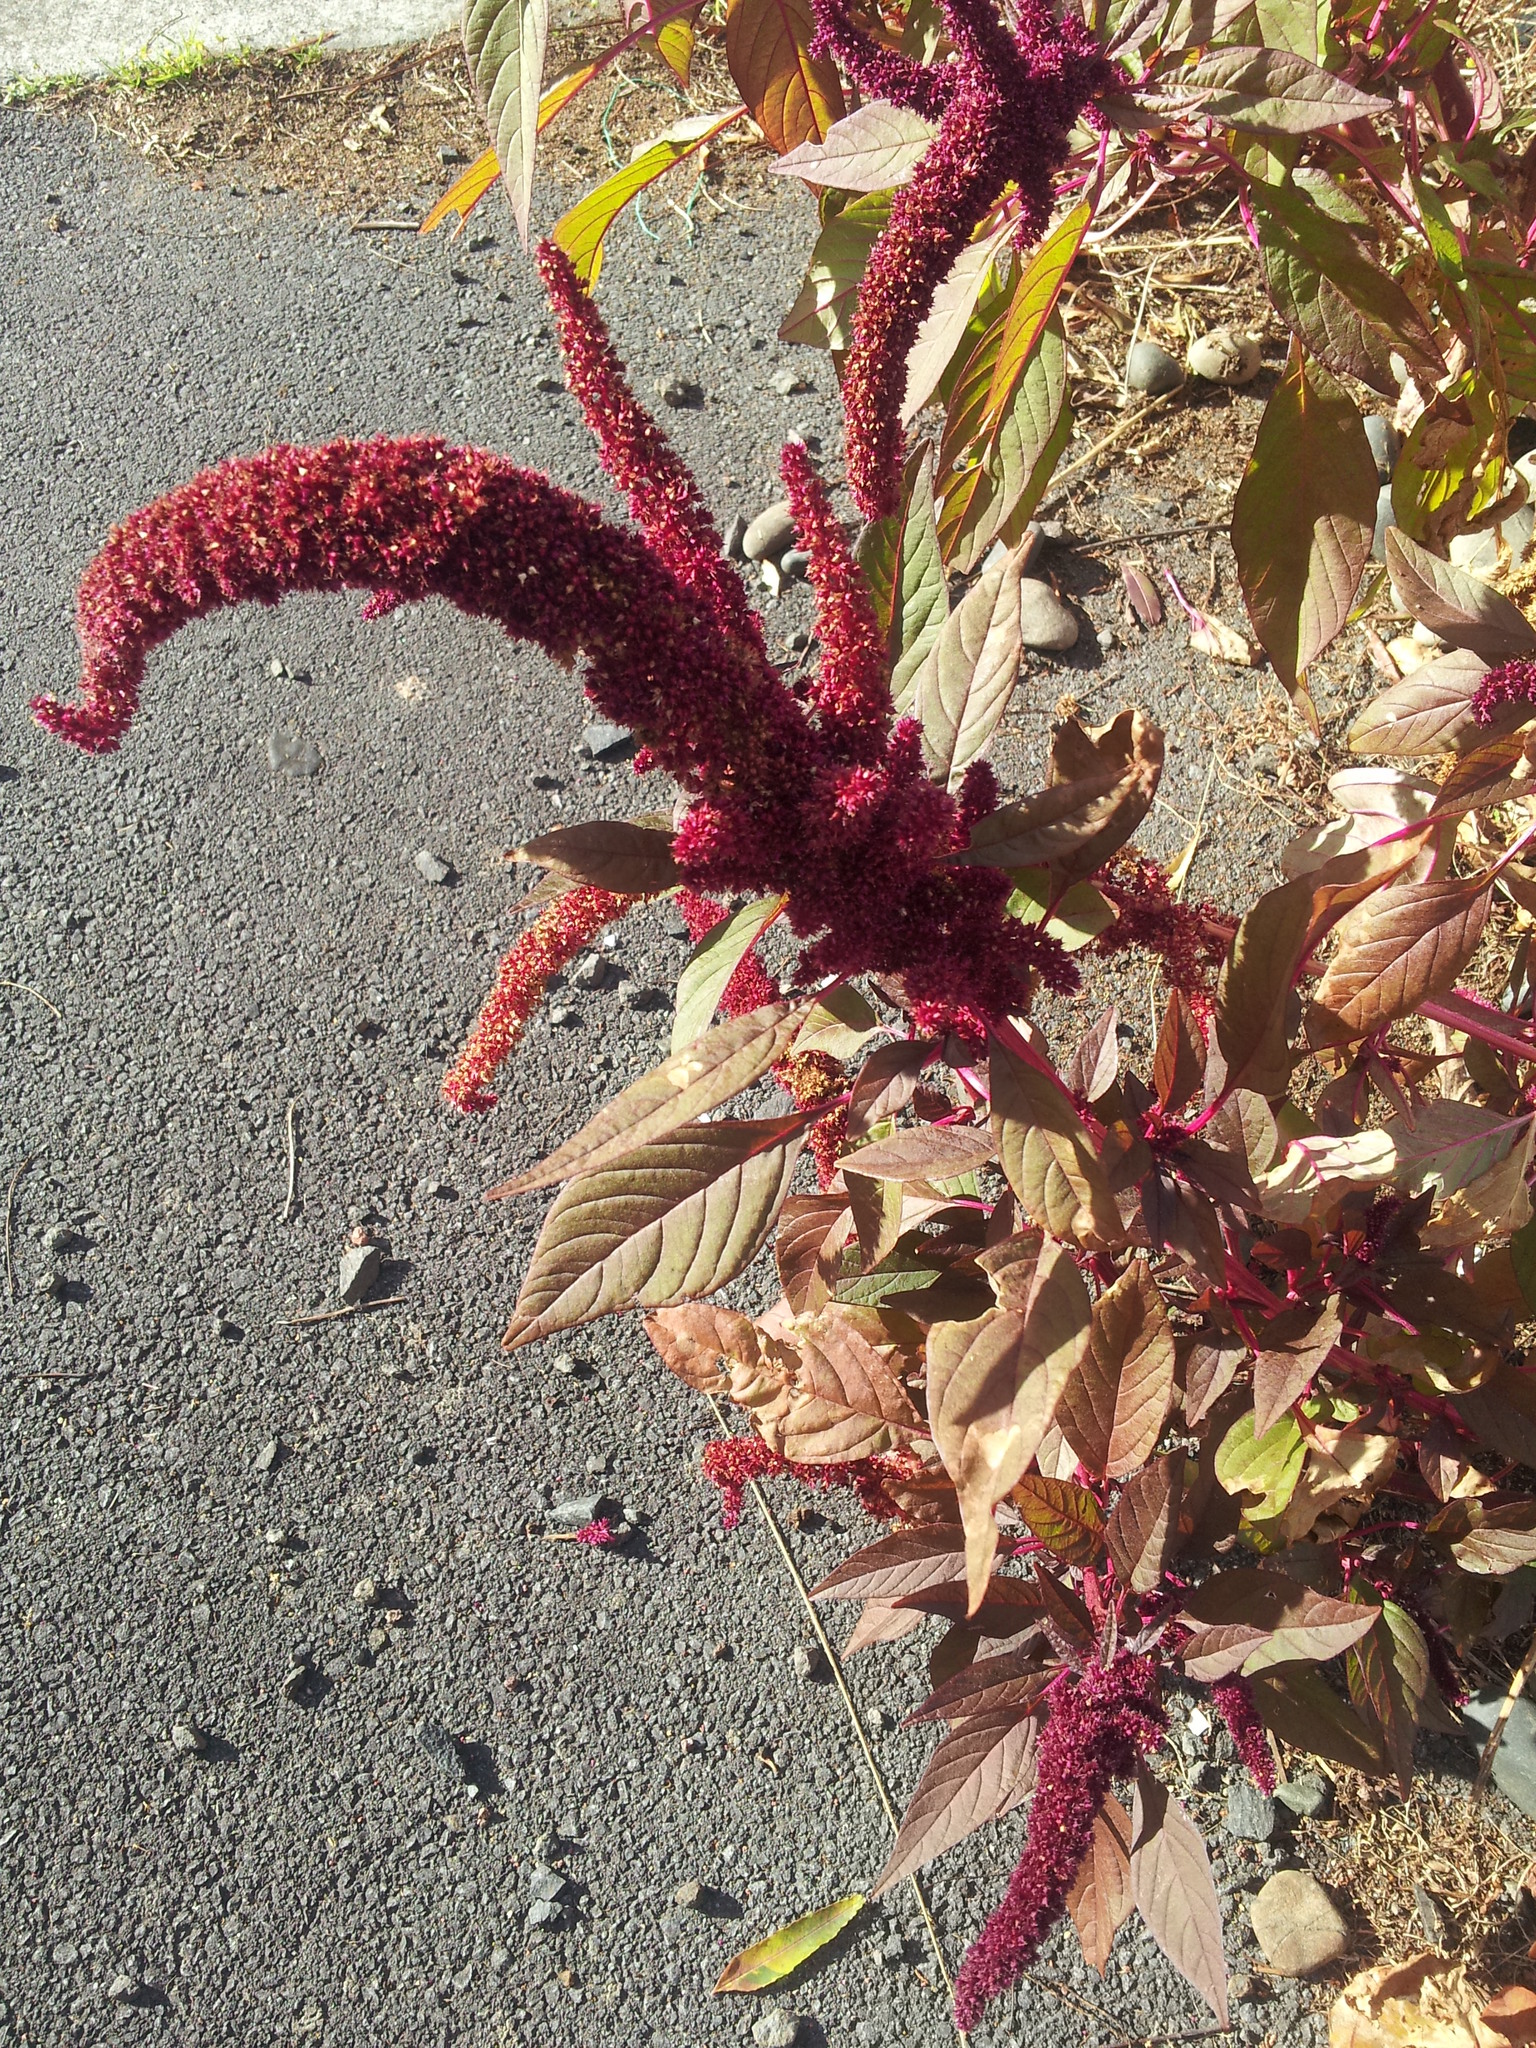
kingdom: Plantae
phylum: Tracheophyta
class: Magnoliopsida
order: Caryophyllales
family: Amaranthaceae
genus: Amaranthus
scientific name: Amaranthus caudatus
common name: Love-lies-bleeding
